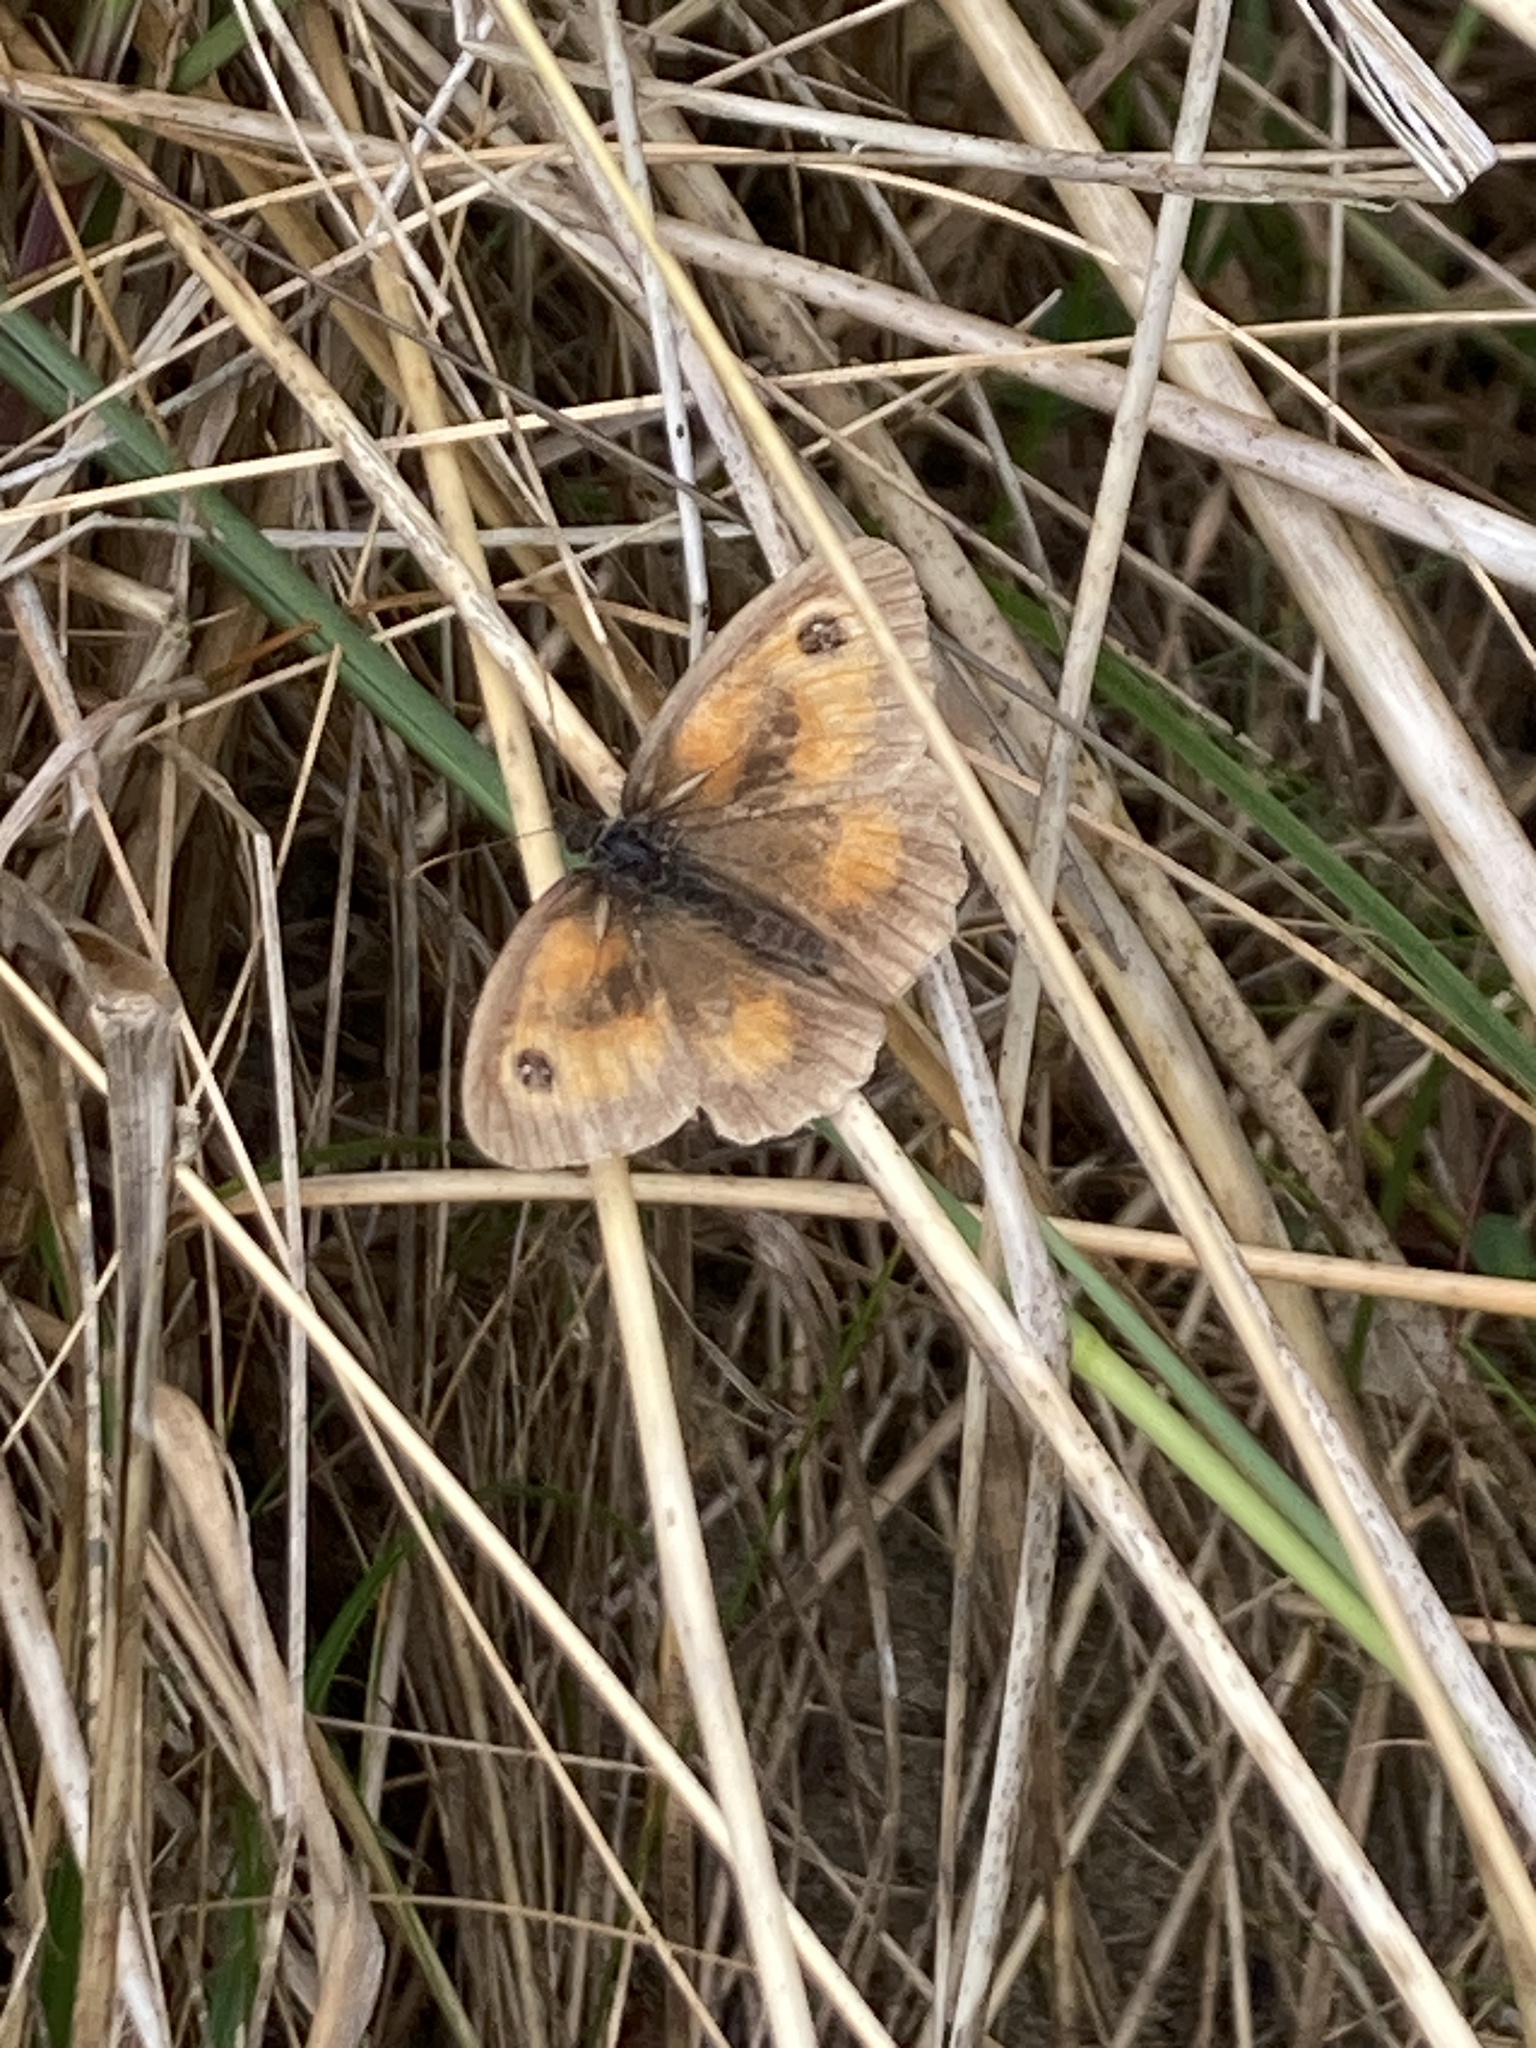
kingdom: Animalia
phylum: Arthropoda
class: Insecta
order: Lepidoptera
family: Nymphalidae
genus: Pyronia
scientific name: Pyronia tithonus
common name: Gatekeeper
